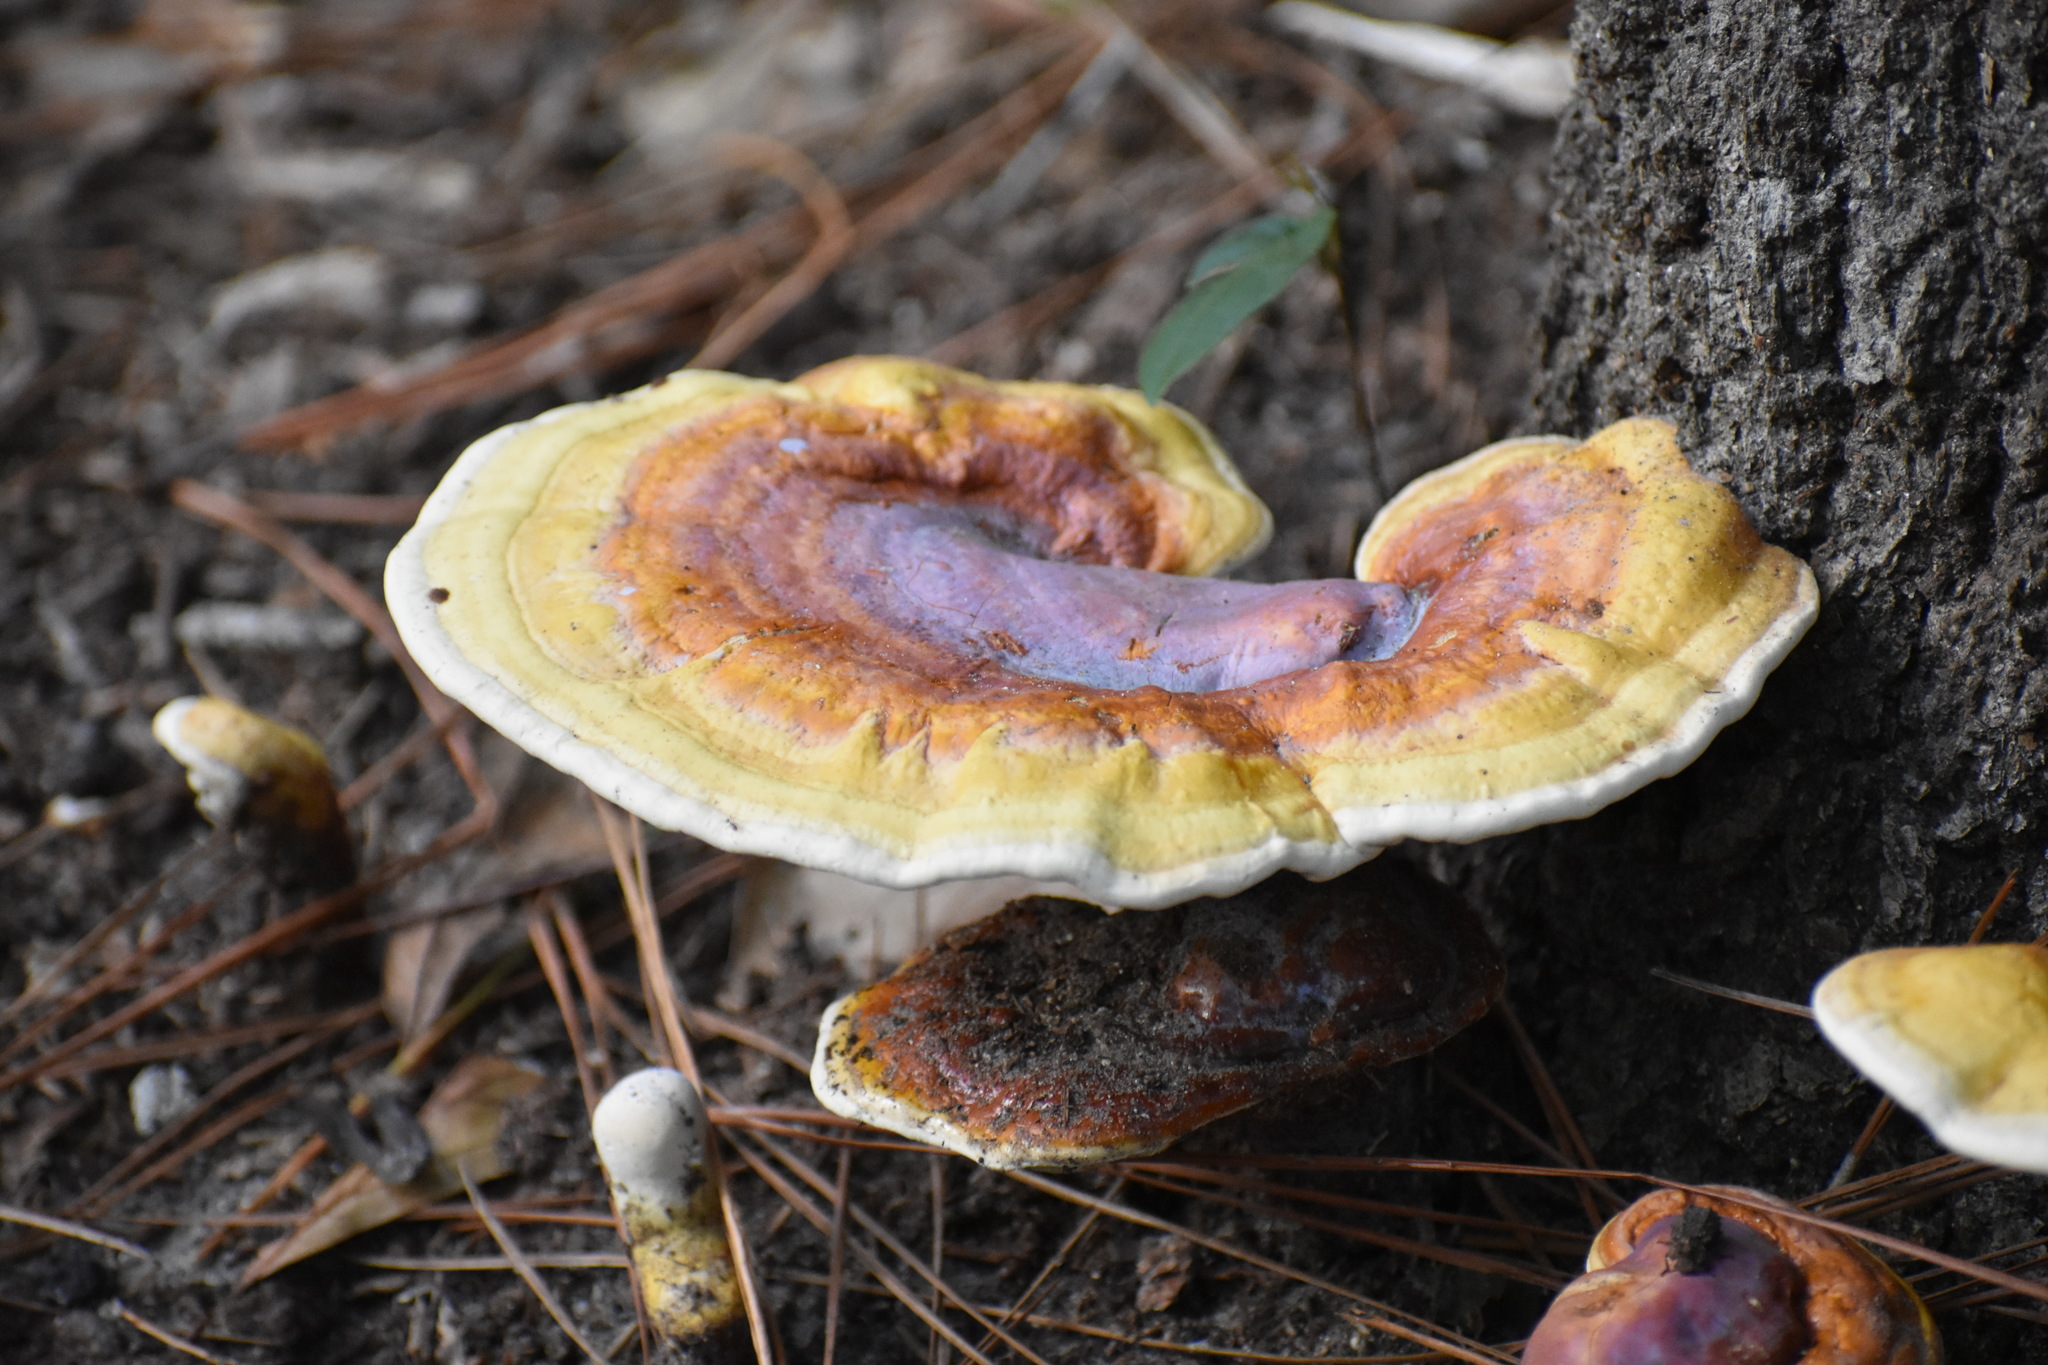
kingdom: Fungi
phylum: Basidiomycota
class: Agaricomycetes
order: Polyporales
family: Polyporaceae
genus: Ganoderma
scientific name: Ganoderma curtisii
